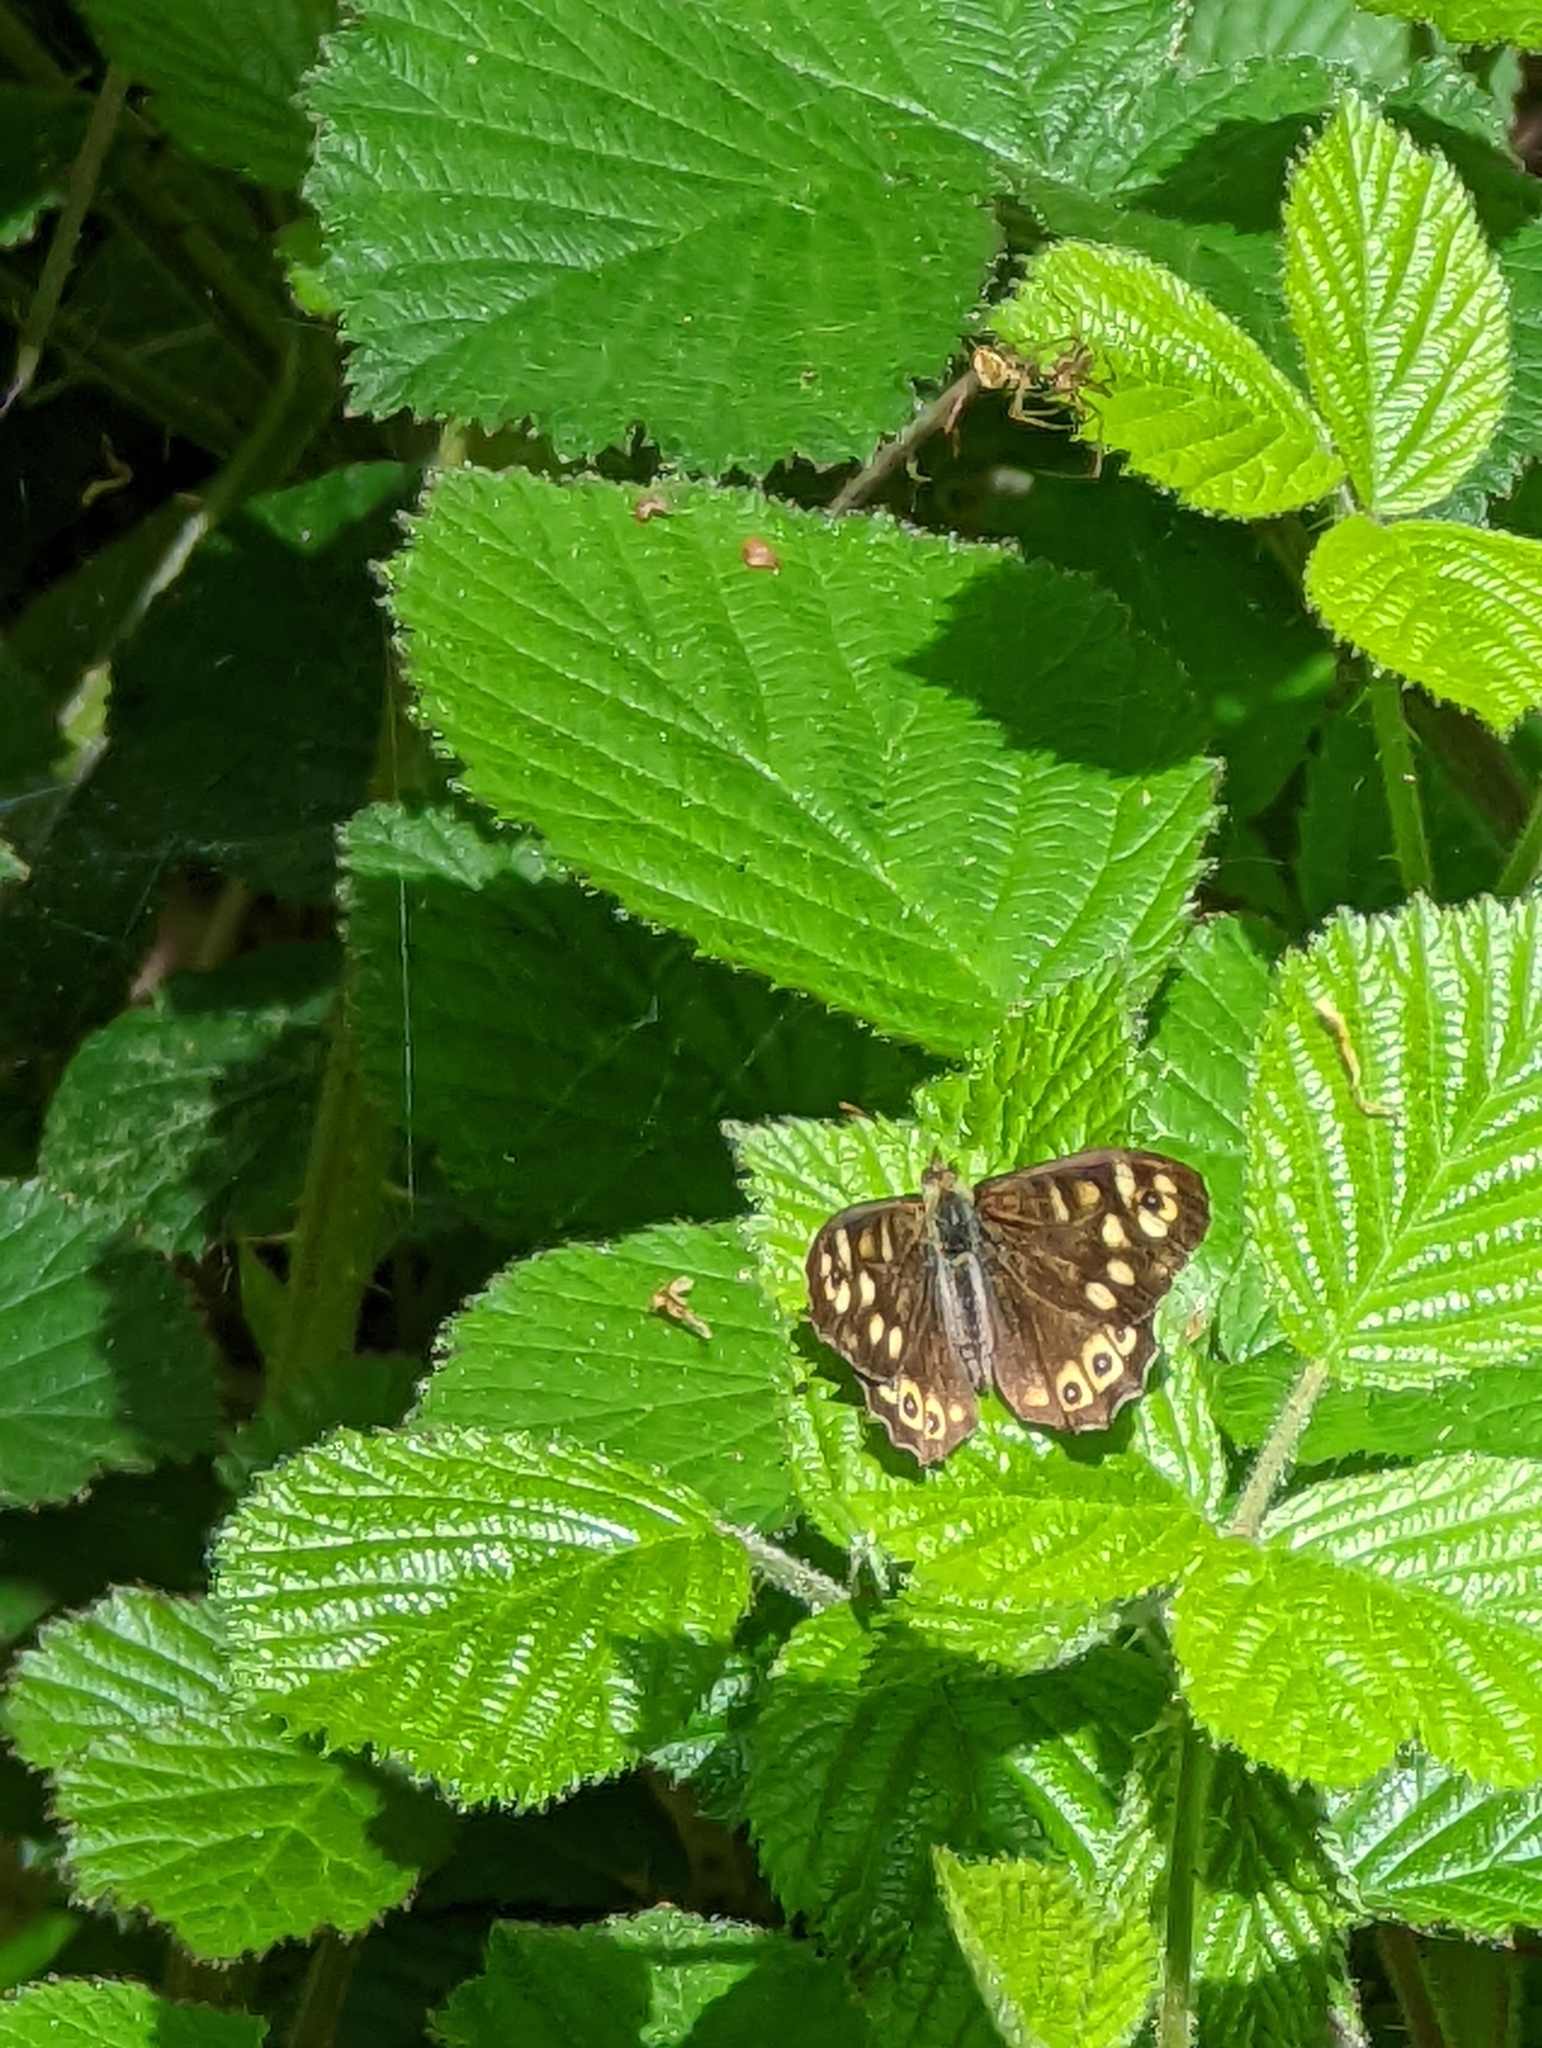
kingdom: Animalia
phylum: Arthropoda
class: Insecta
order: Lepidoptera
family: Nymphalidae
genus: Pararge
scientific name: Pararge aegeria
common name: Speckled wood
